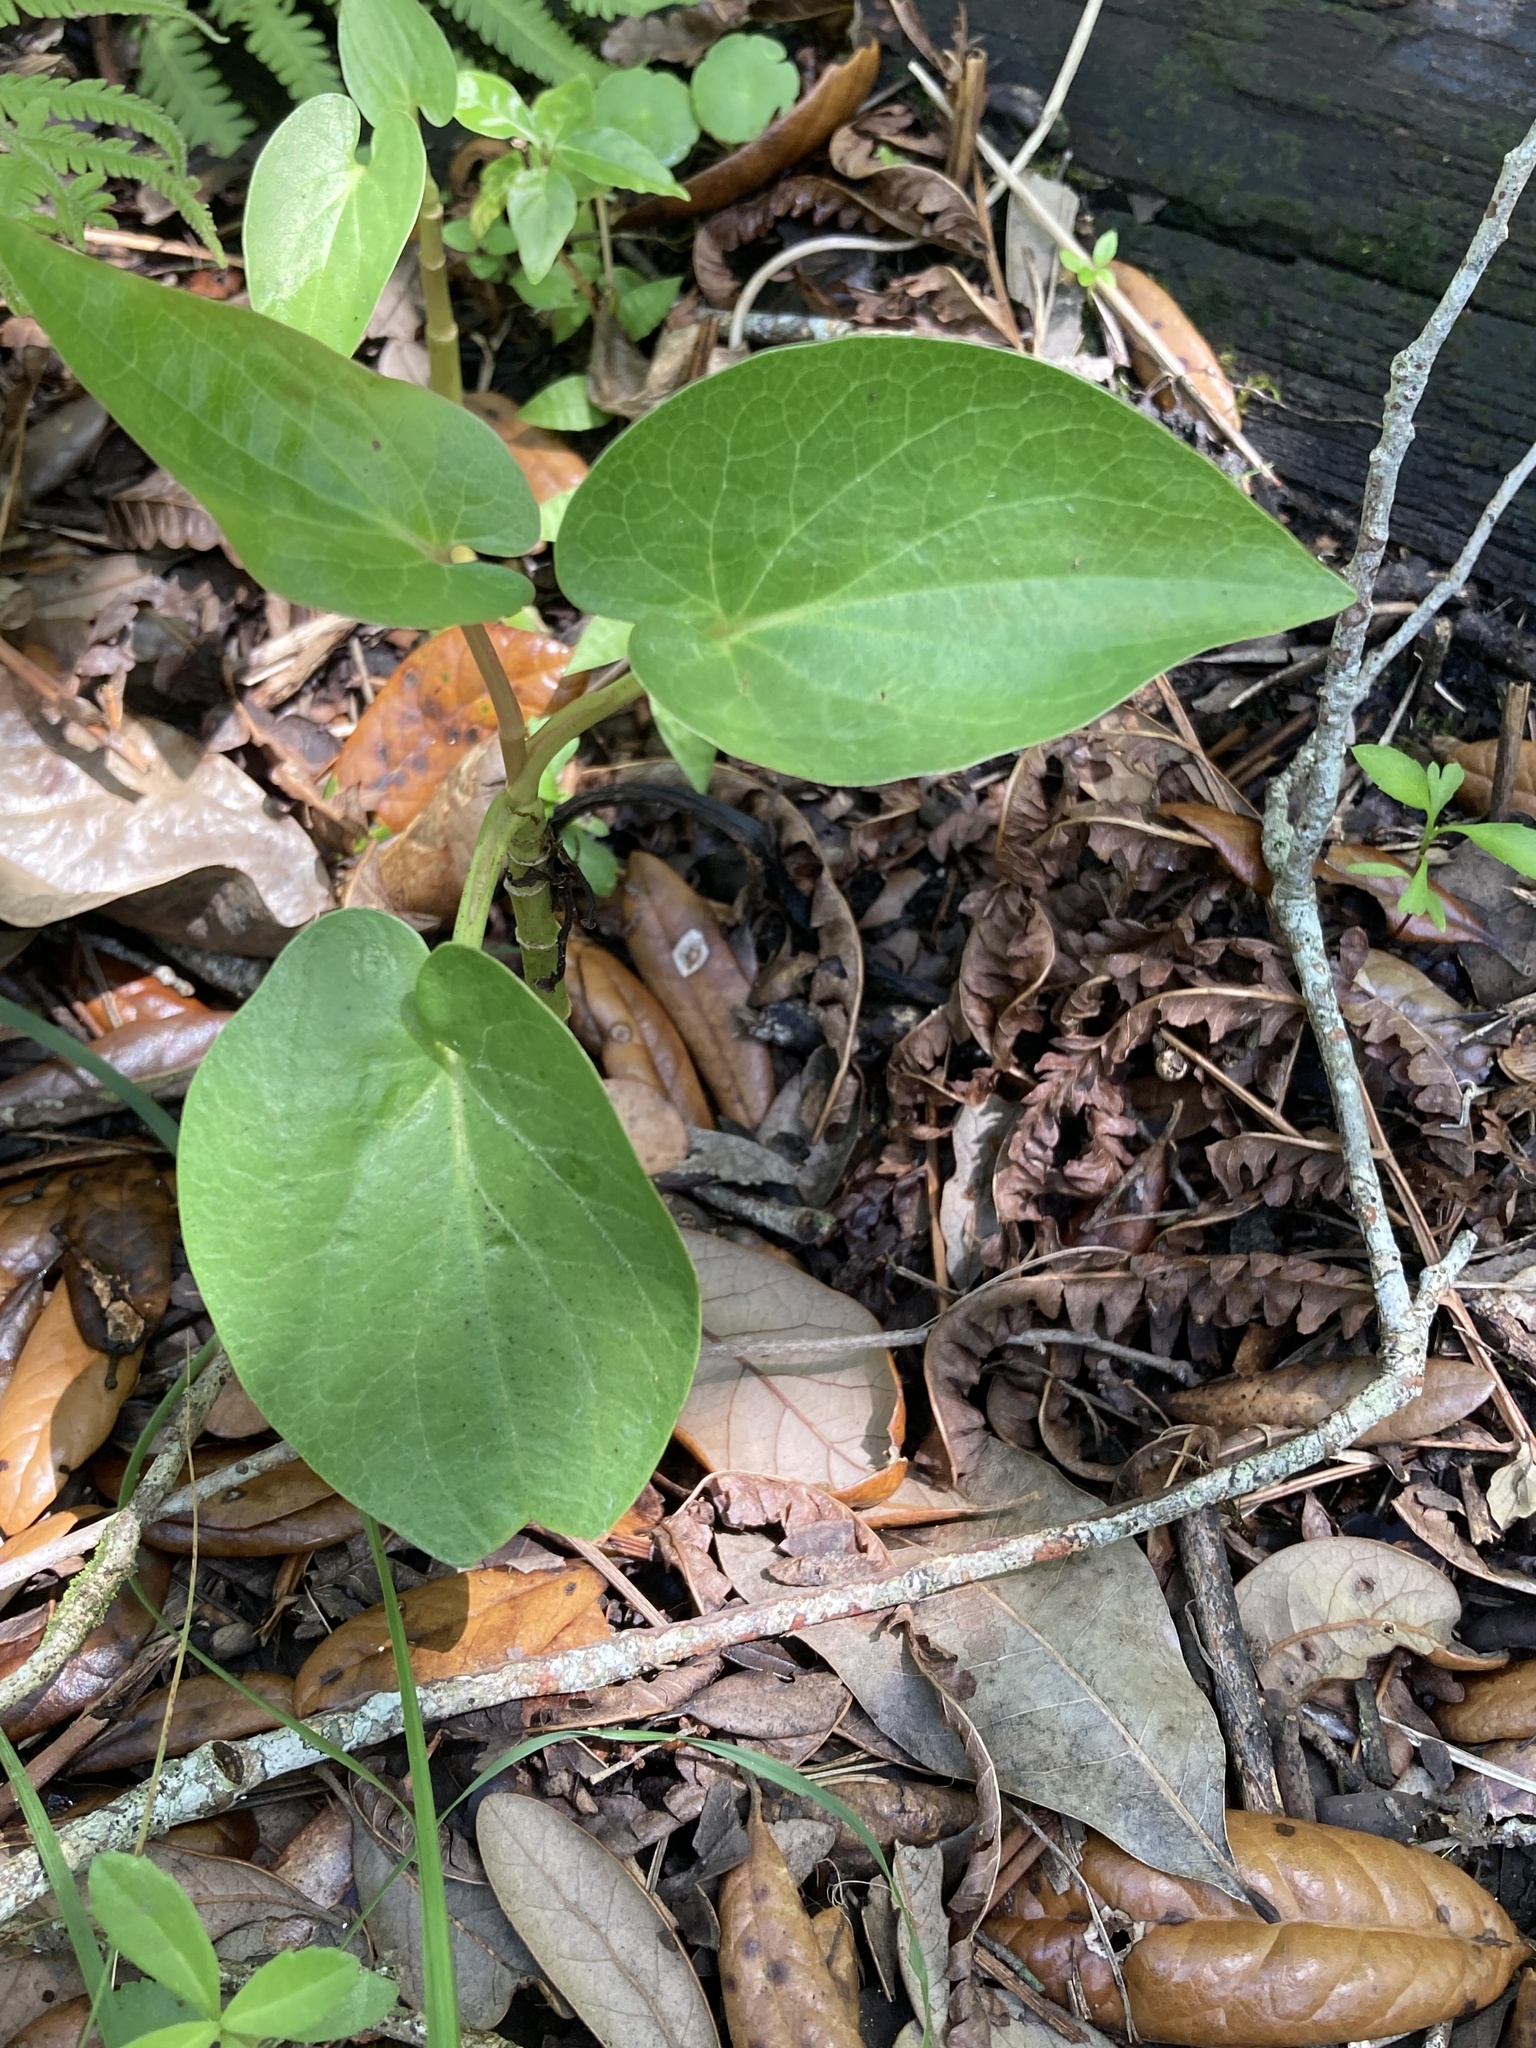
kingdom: Plantae
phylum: Tracheophyta
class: Magnoliopsida
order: Piperales
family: Saururaceae
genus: Saururus
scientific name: Saururus cernuus
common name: Lizard's-tail
